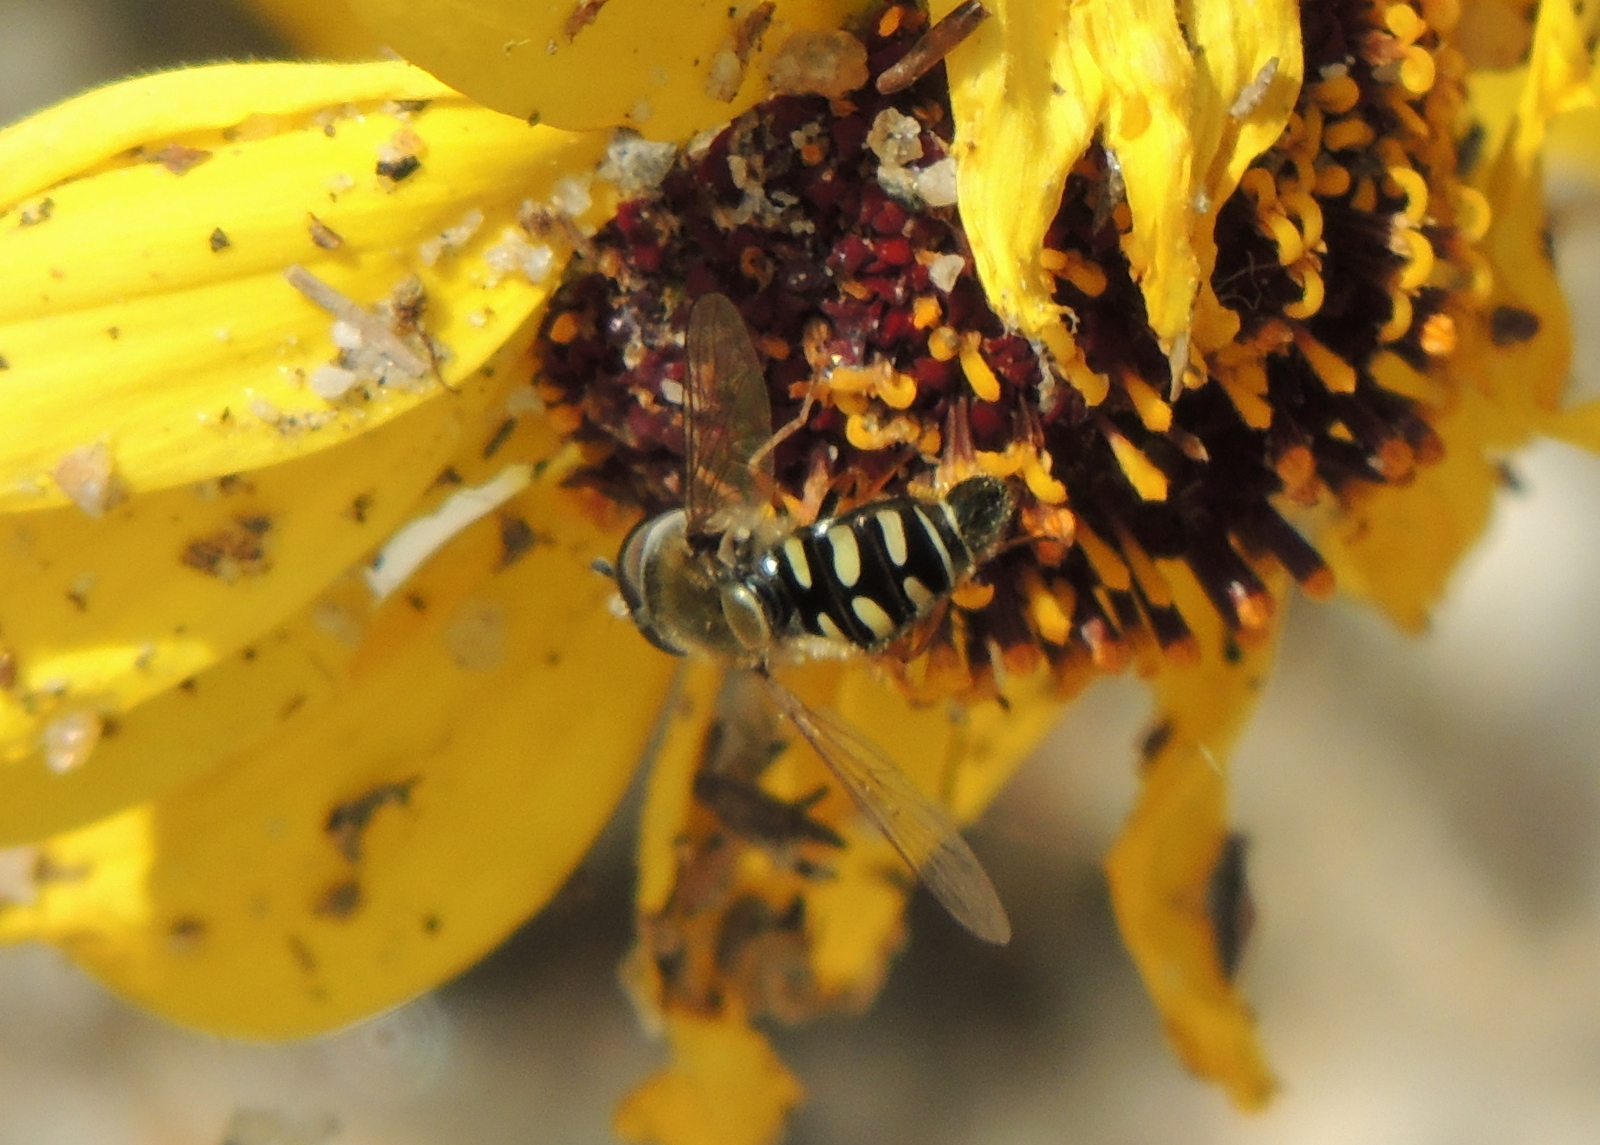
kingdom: Animalia
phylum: Arthropoda
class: Insecta
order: Diptera
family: Syrphidae
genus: Eupeodes
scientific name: Eupeodes volucris
